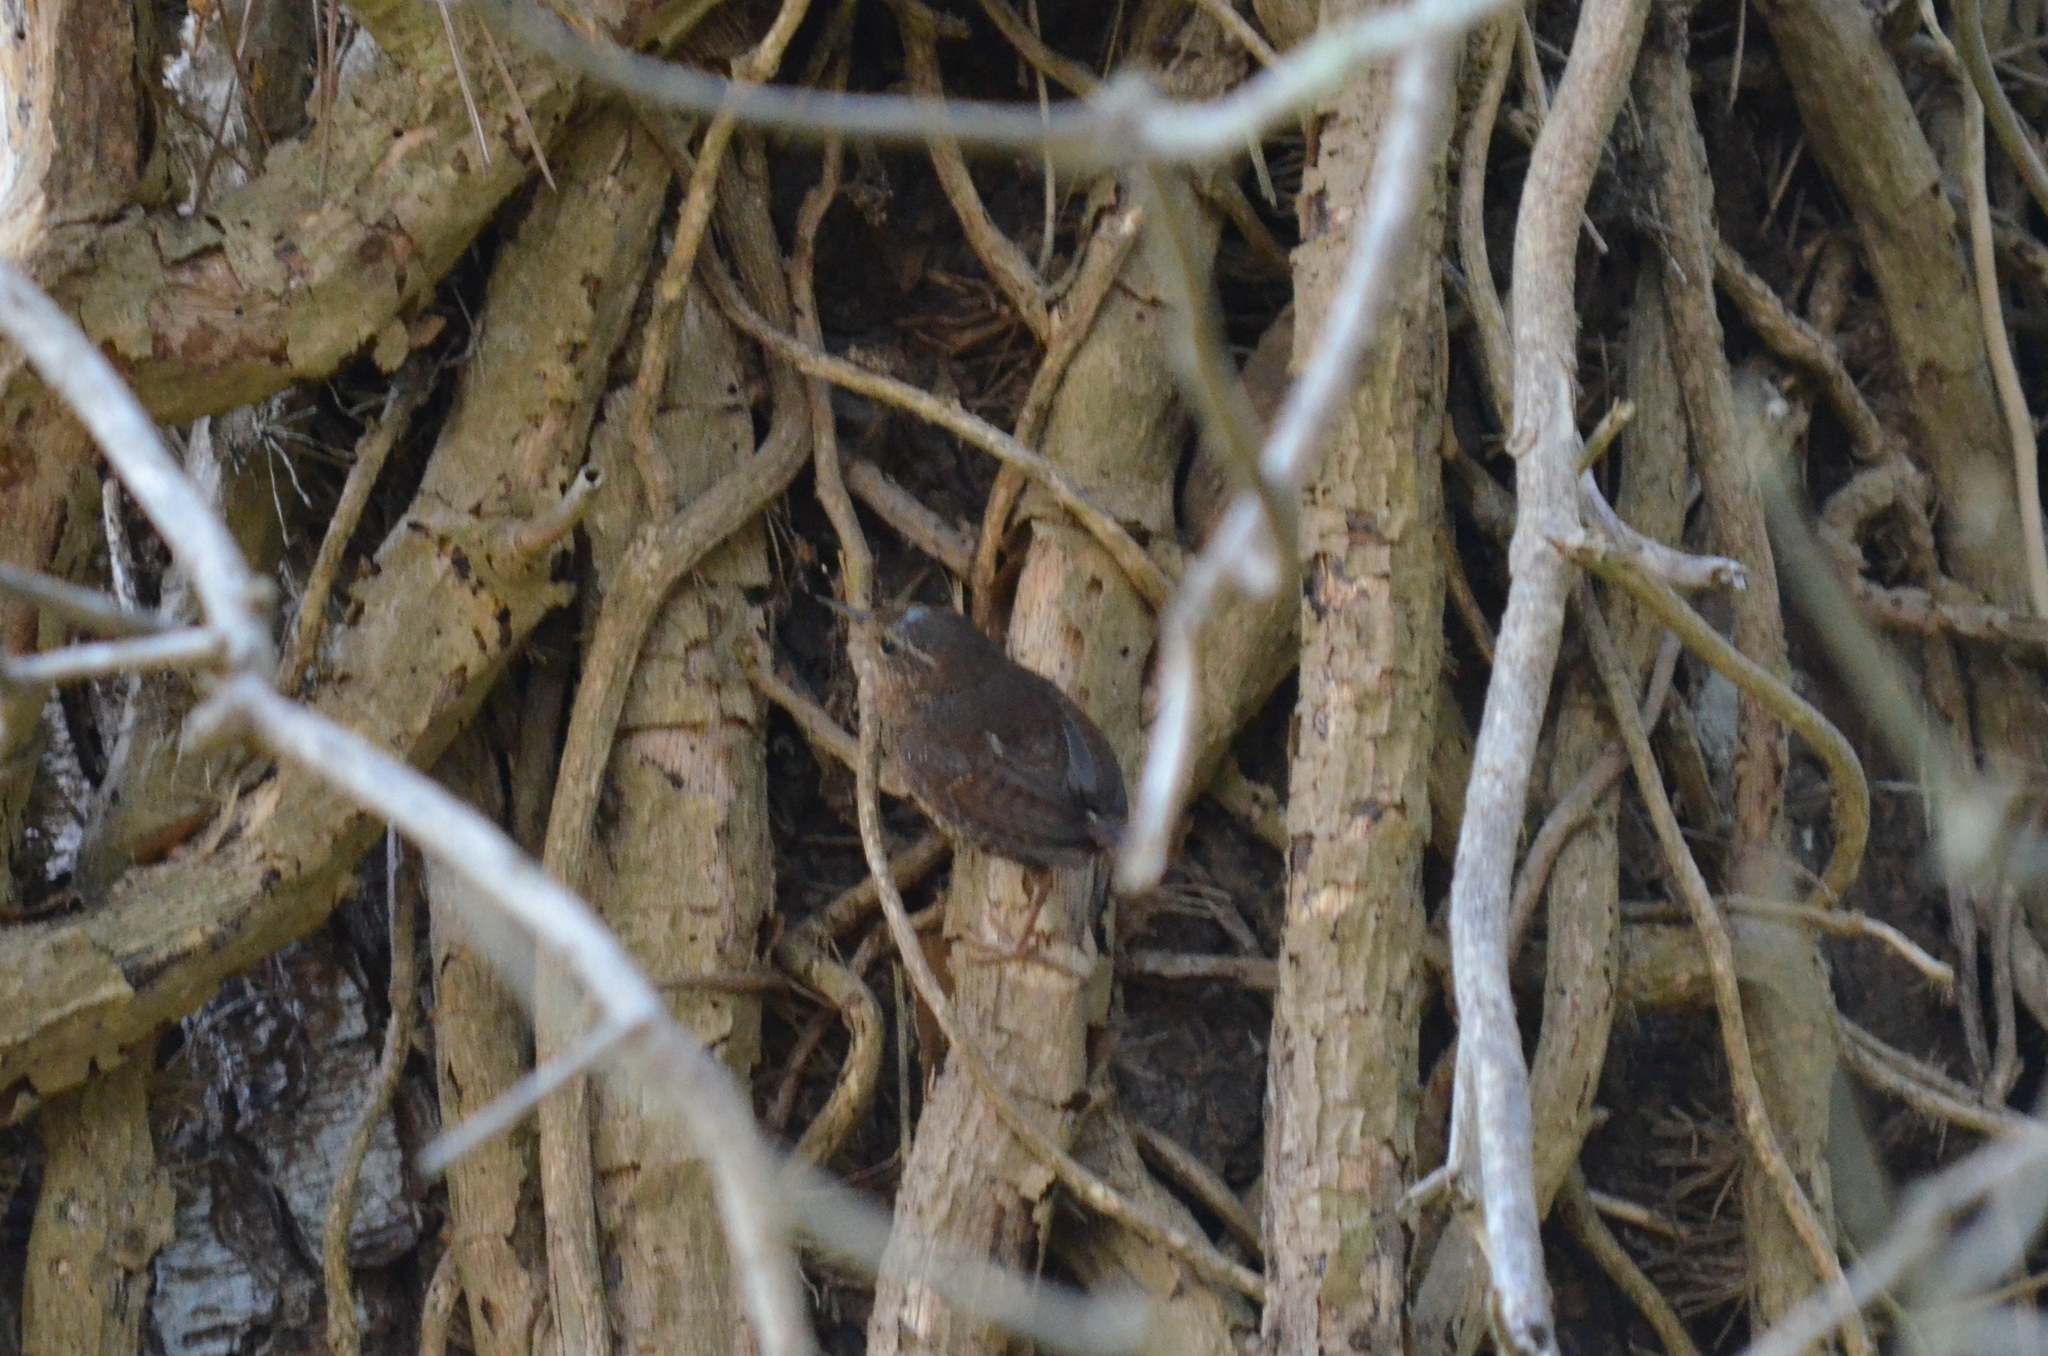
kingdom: Animalia
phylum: Chordata
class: Aves
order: Passeriformes
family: Troglodytidae
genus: Troglodytes
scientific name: Troglodytes pacificus
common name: Pacific wren
